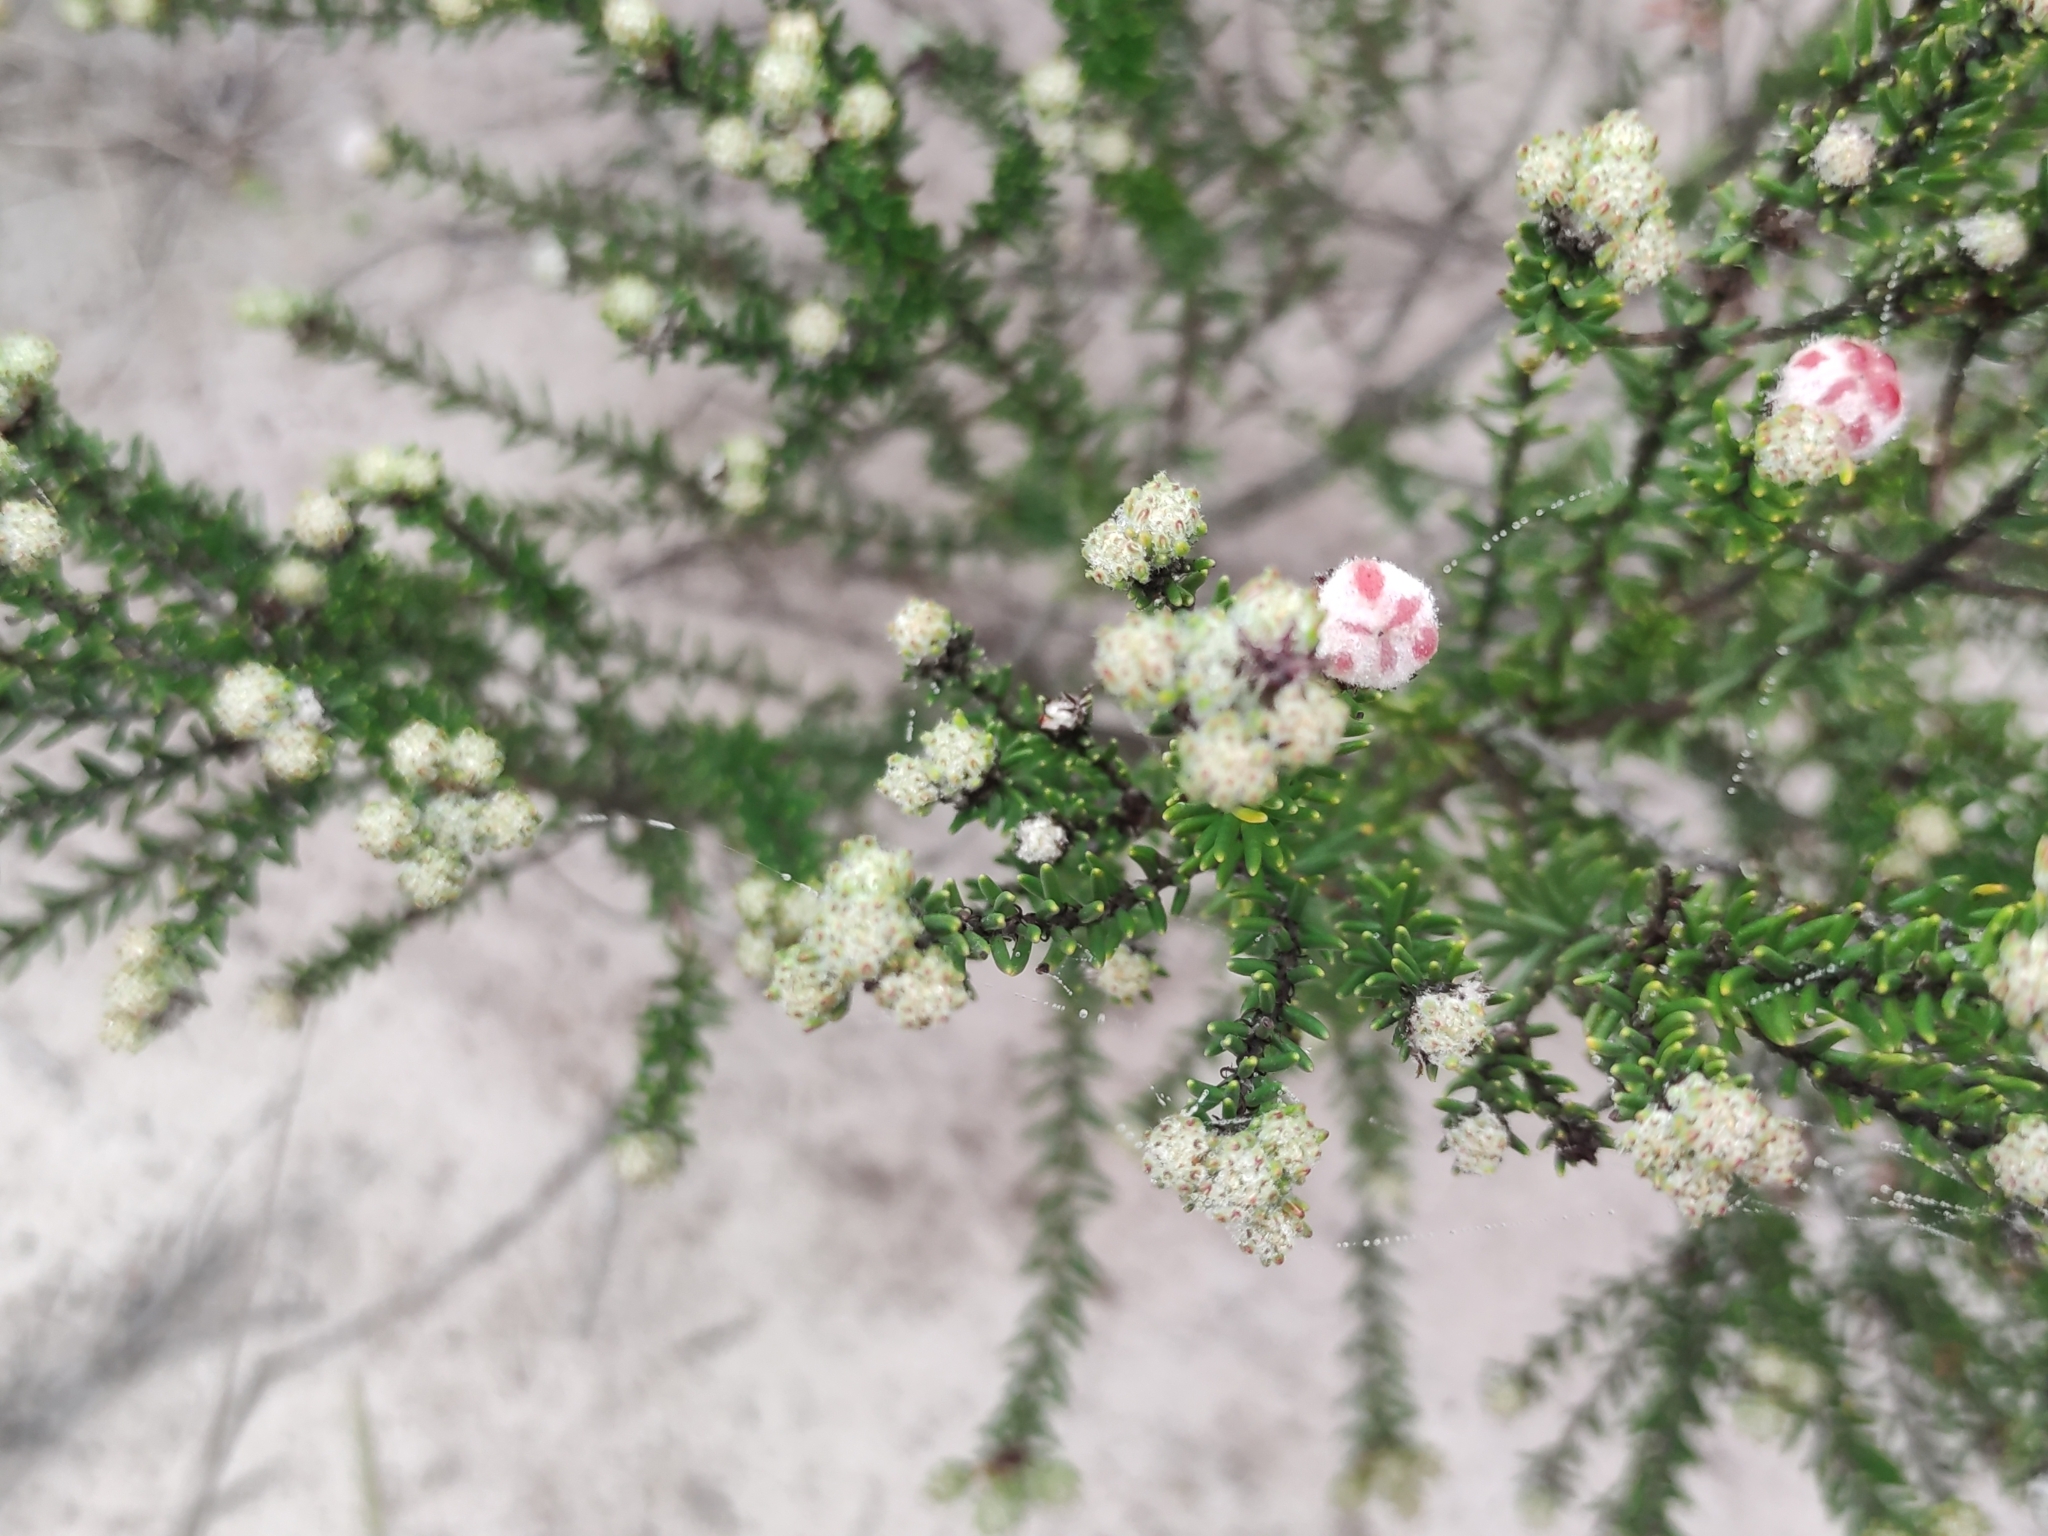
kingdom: Plantae
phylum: Tracheophyta
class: Magnoliopsida
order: Rosales
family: Rhamnaceae
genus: Trichocephalus
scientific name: Trichocephalus stipularis
